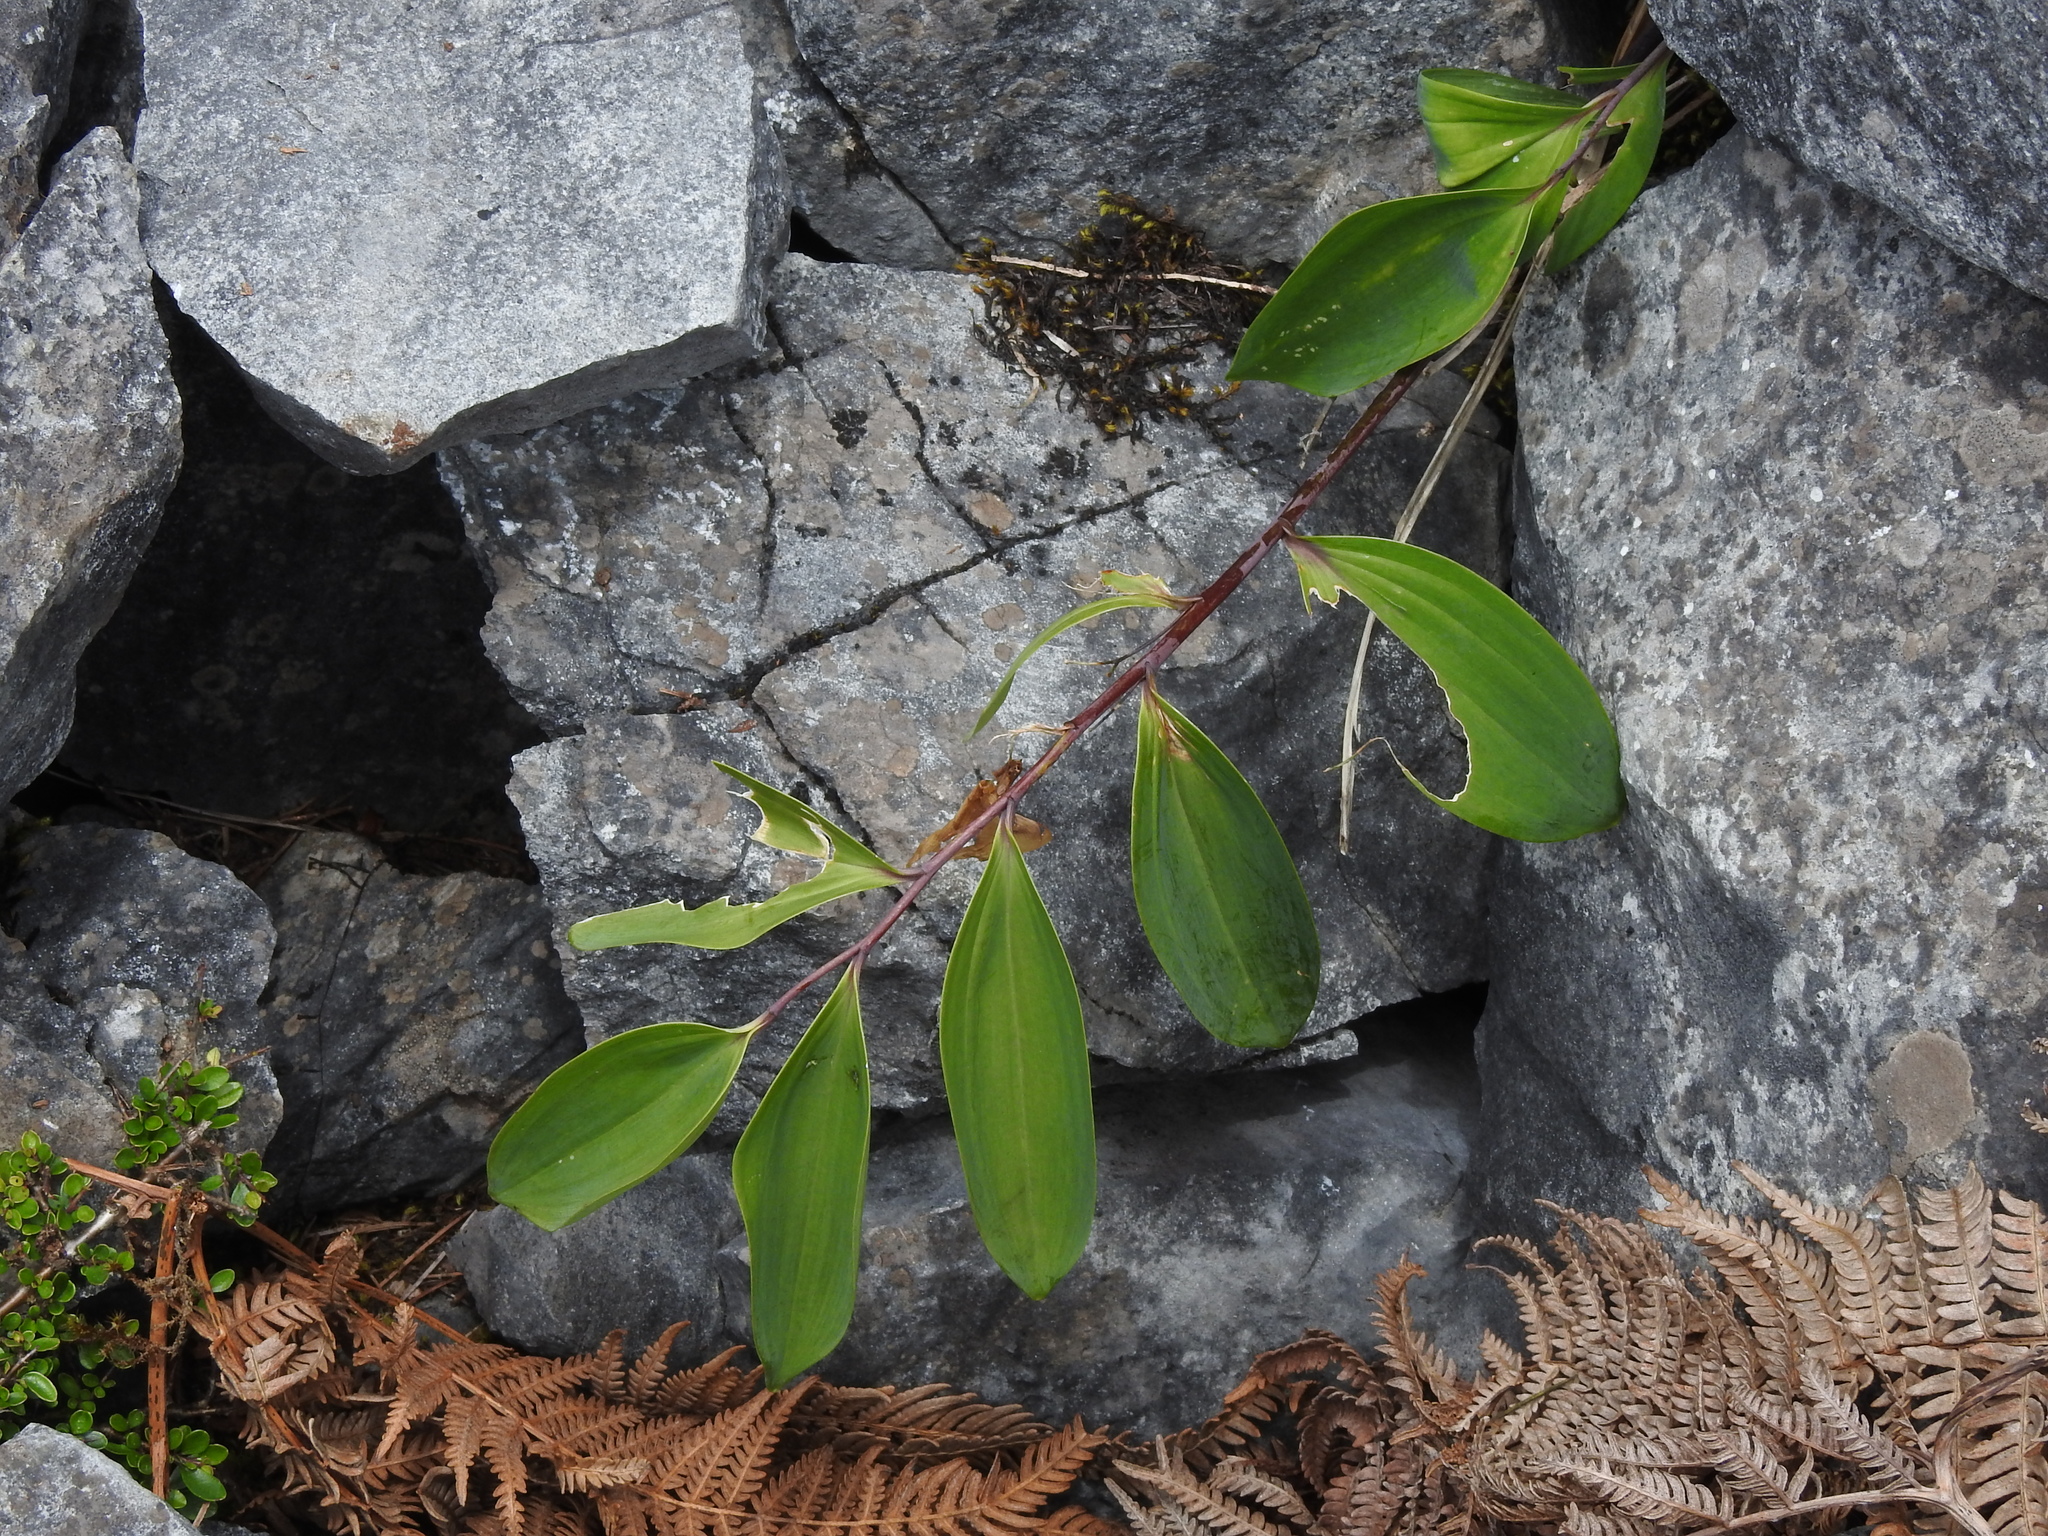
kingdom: Plantae
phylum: Tracheophyta
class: Liliopsida
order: Asparagales
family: Asparagaceae
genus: Polygonatum
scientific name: Polygonatum arisanense
